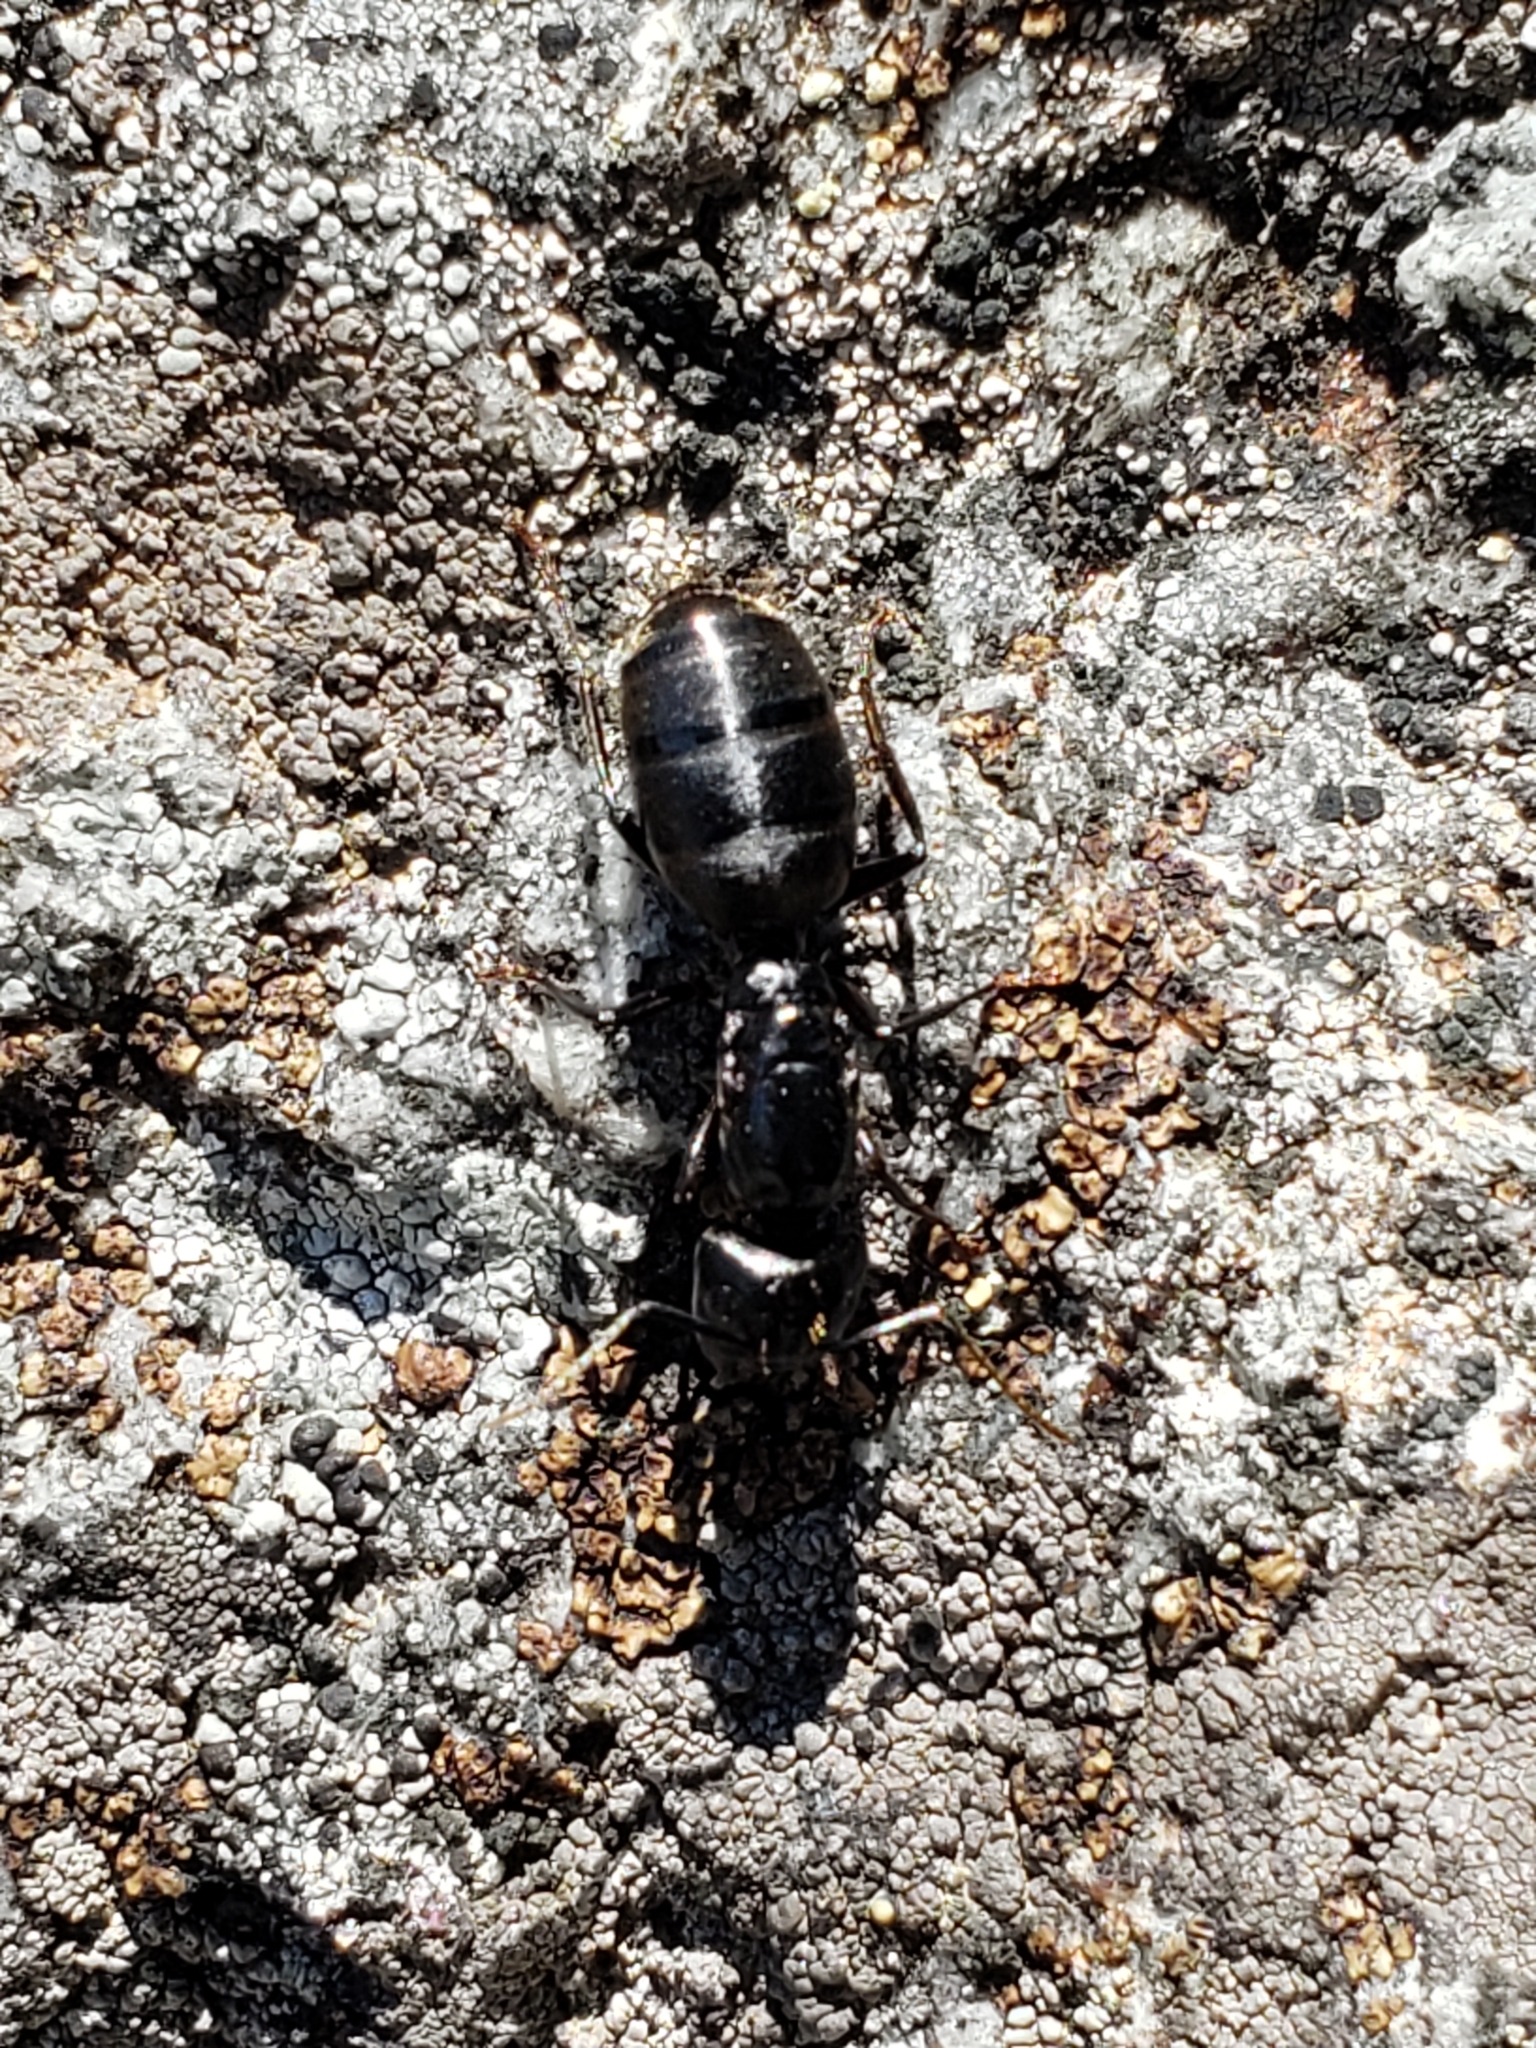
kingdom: Animalia
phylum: Arthropoda
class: Insecta
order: Hymenoptera
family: Formicidae
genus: Camponotus
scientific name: Camponotus pennsylvanicus
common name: Black carpenter ant
